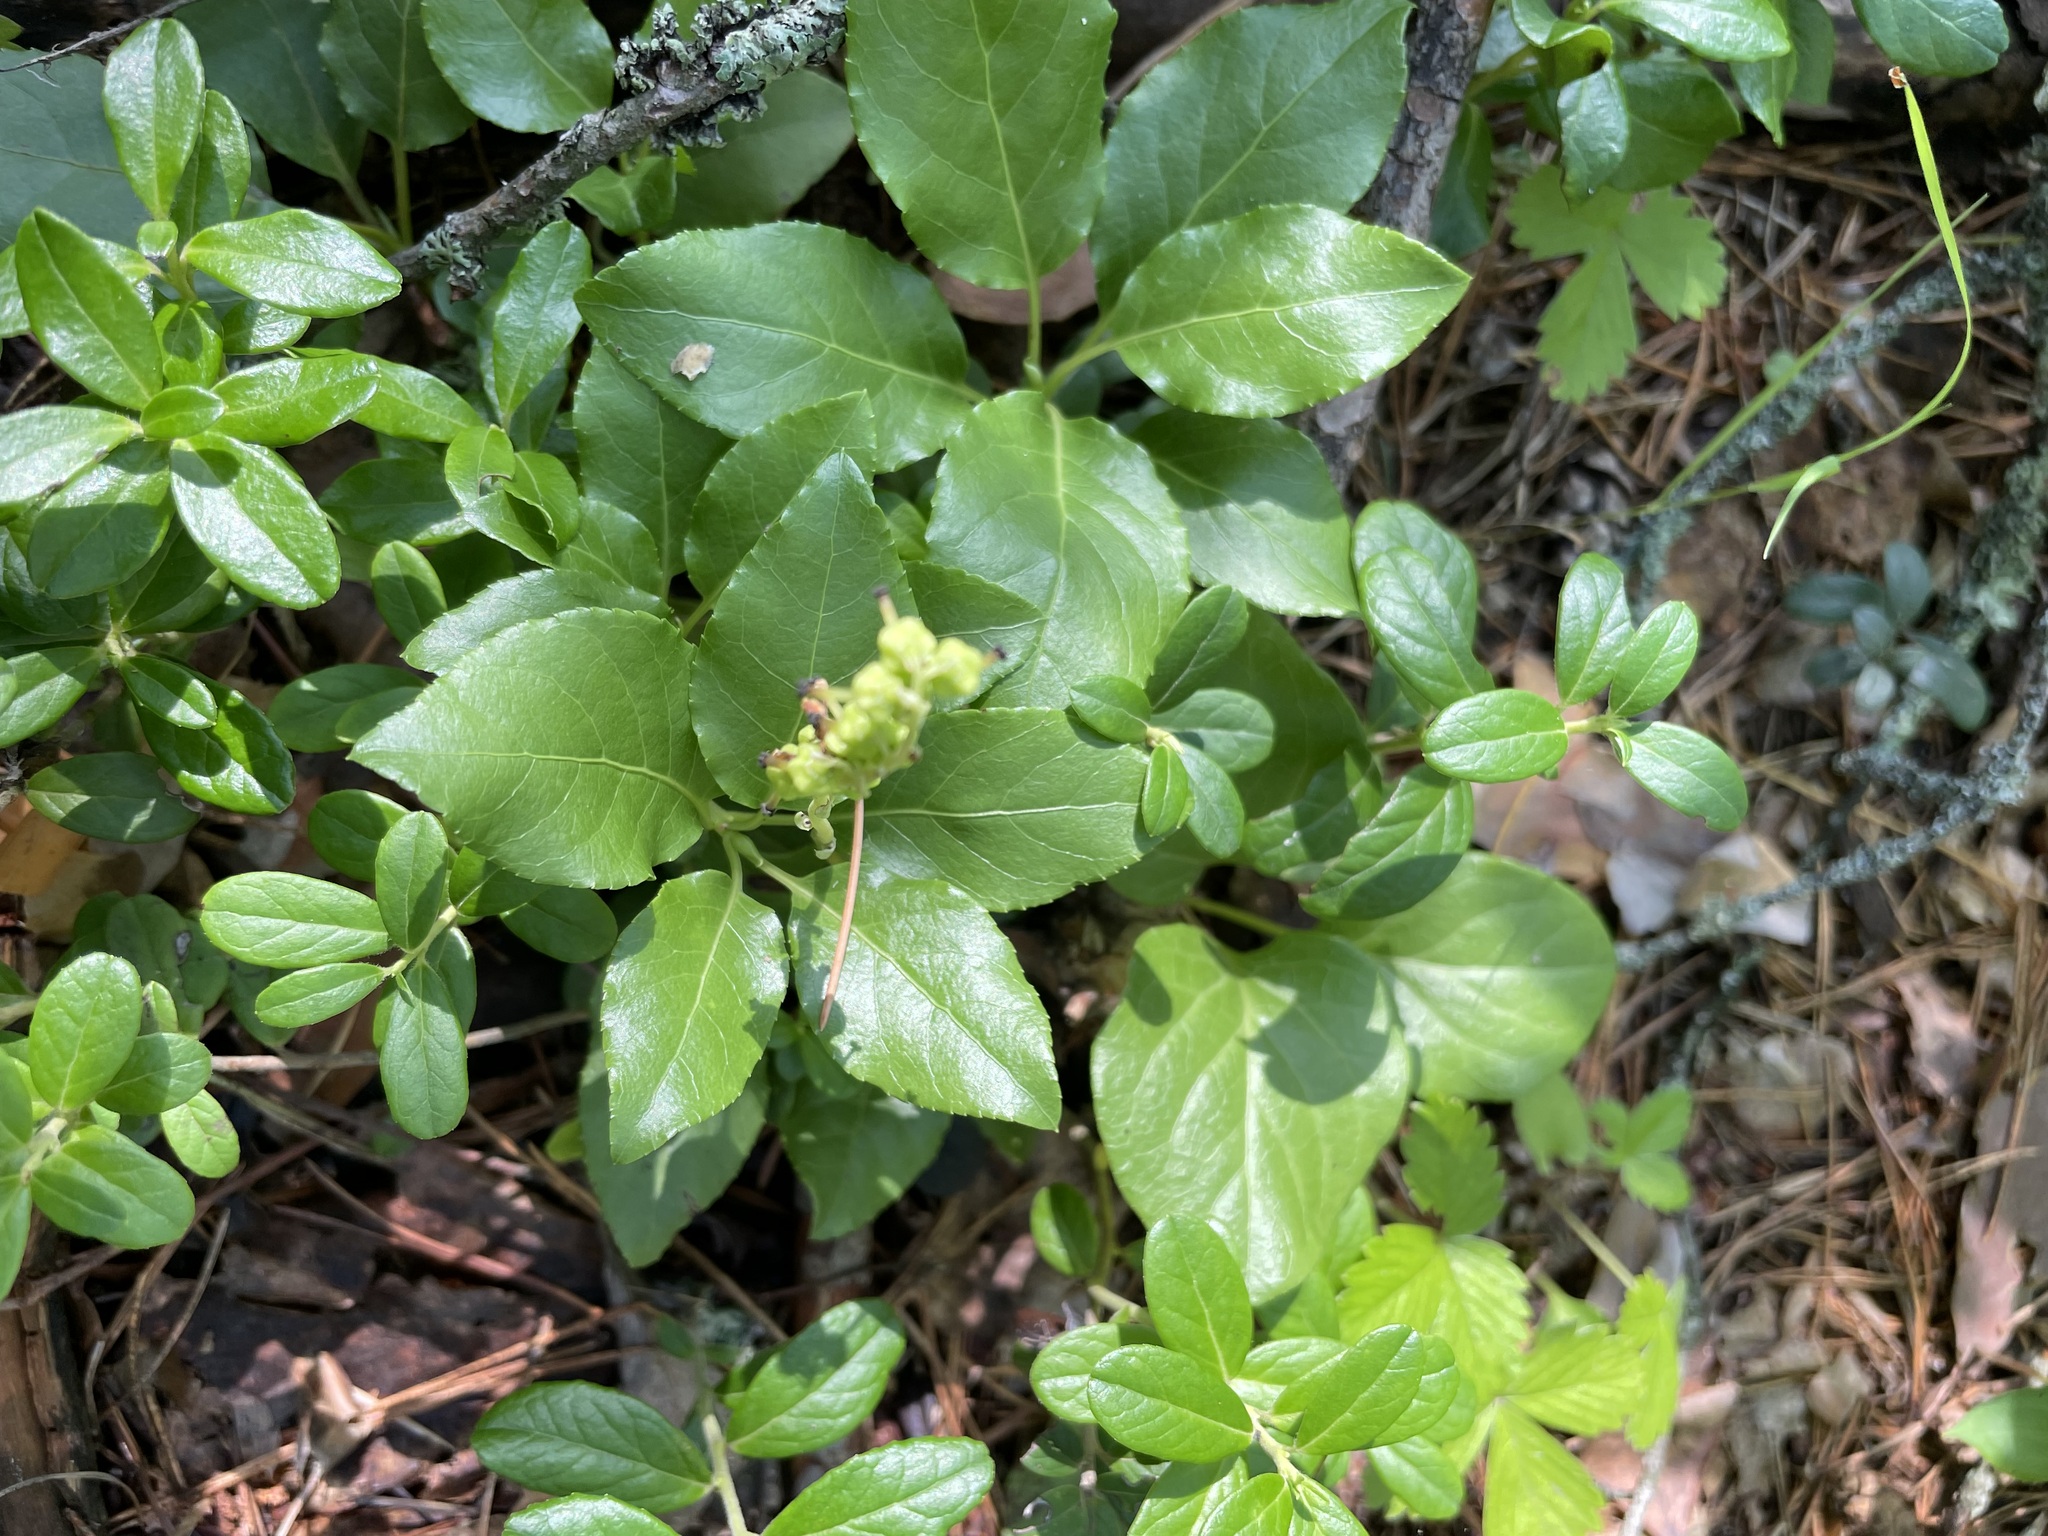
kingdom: Plantae
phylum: Tracheophyta
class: Magnoliopsida
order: Ericales
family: Ericaceae
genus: Orthilia
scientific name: Orthilia secunda
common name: One-sided orthilia
